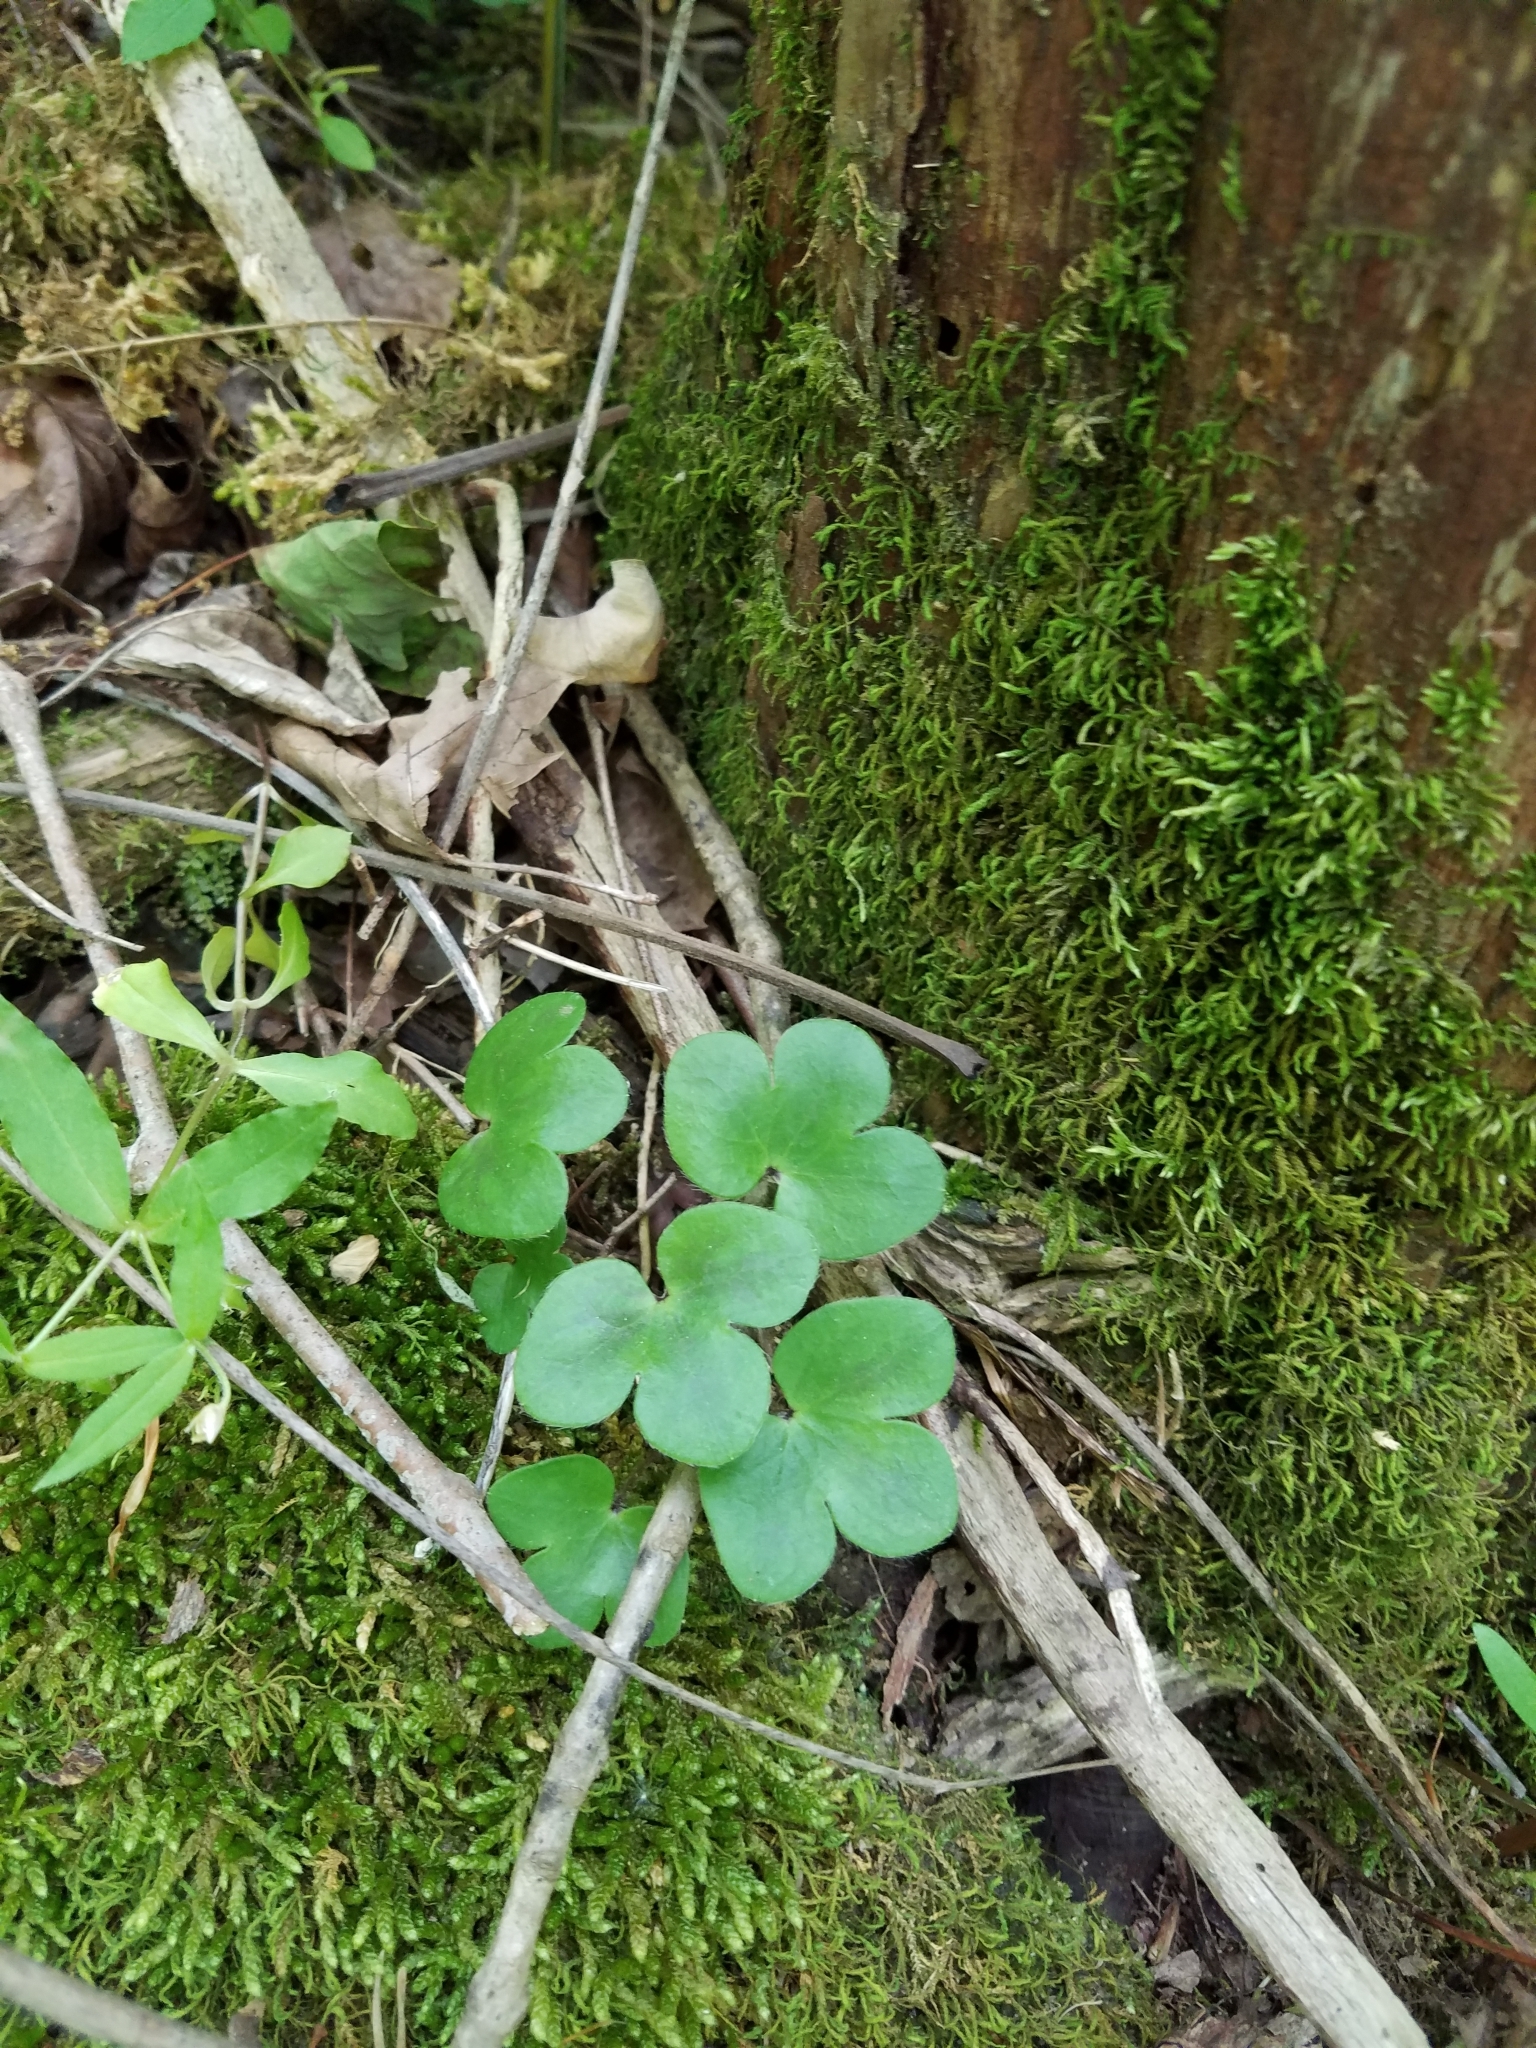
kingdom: Plantae
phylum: Tracheophyta
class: Magnoliopsida
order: Ranunculales
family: Ranunculaceae
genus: Hepatica
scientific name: Hepatica americana
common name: American hepatica
